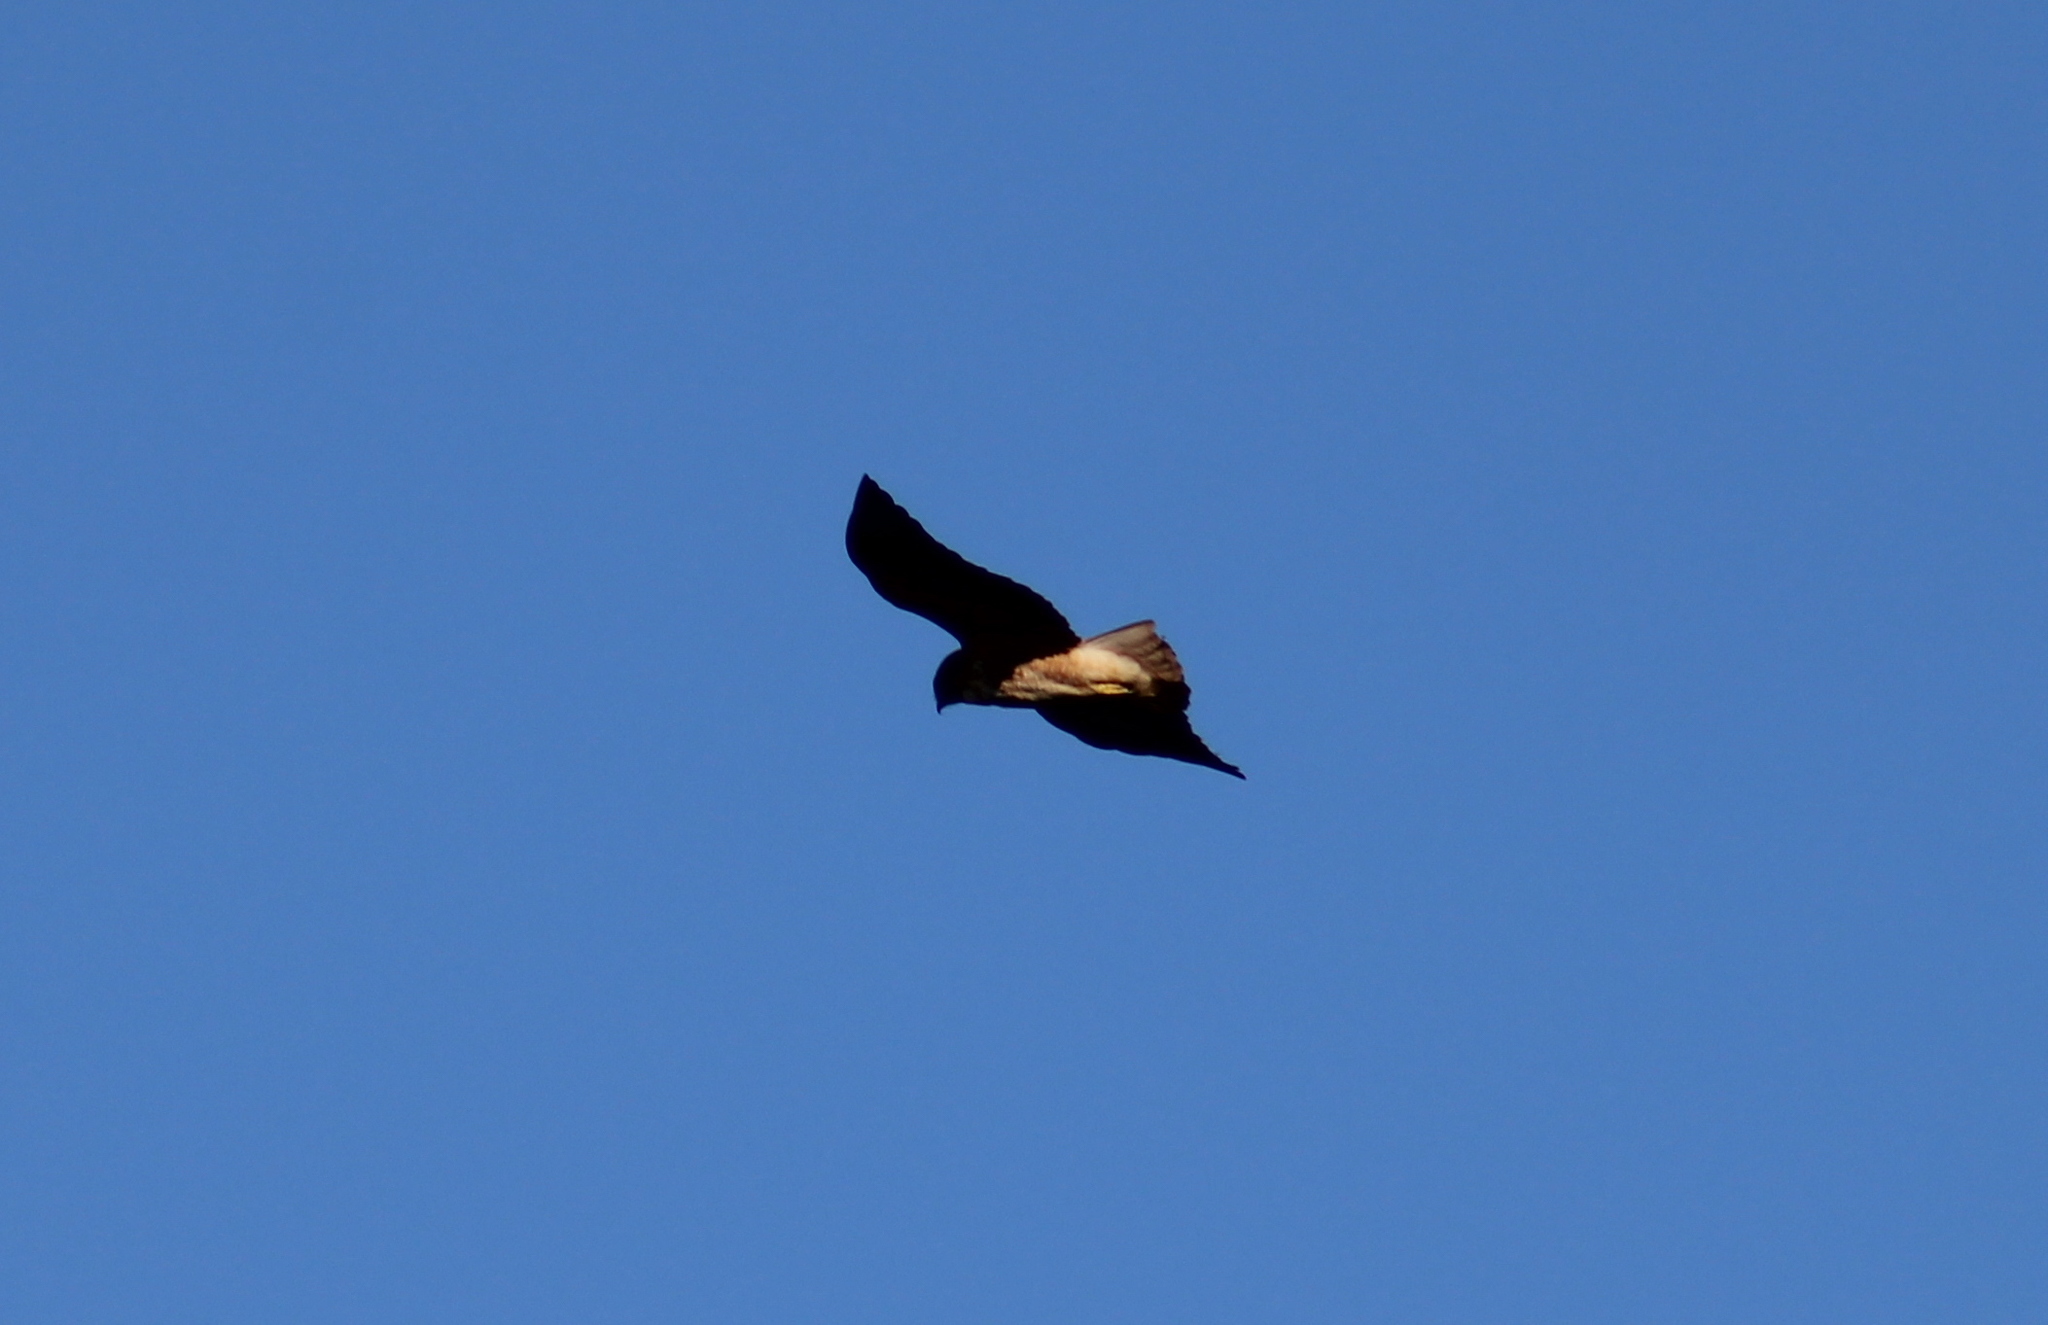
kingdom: Animalia
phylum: Chordata
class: Aves
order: Accipitriformes
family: Accipitridae
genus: Buteo
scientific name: Buteo jamaicensis
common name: Red-tailed hawk
